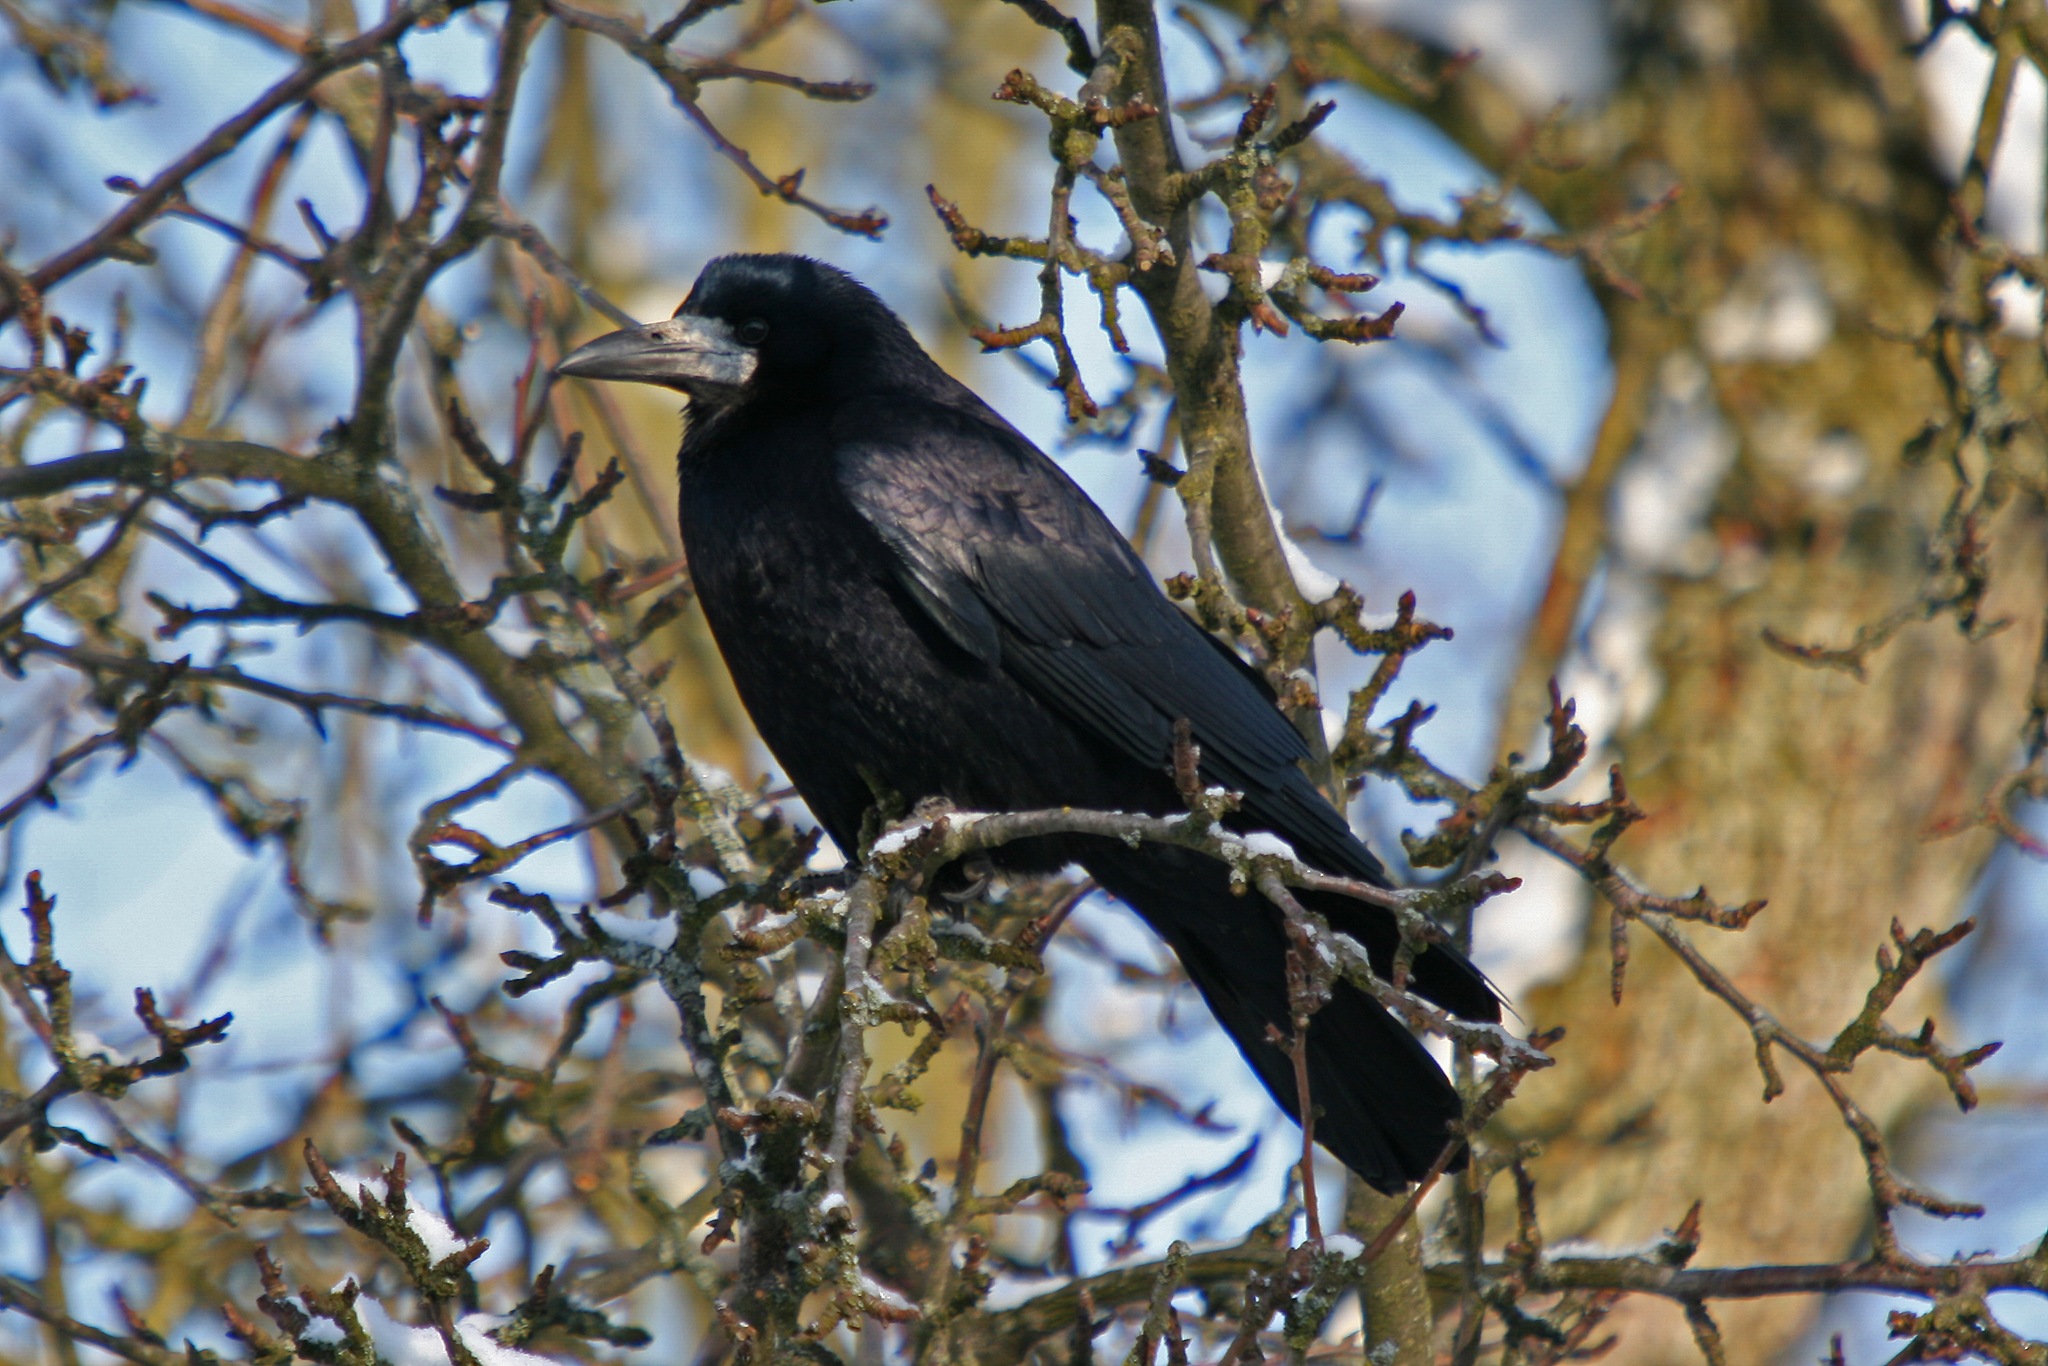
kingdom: Animalia
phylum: Chordata
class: Aves
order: Passeriformes
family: Corvidae
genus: Corvus
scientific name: Corvus frugilegus
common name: Rook
